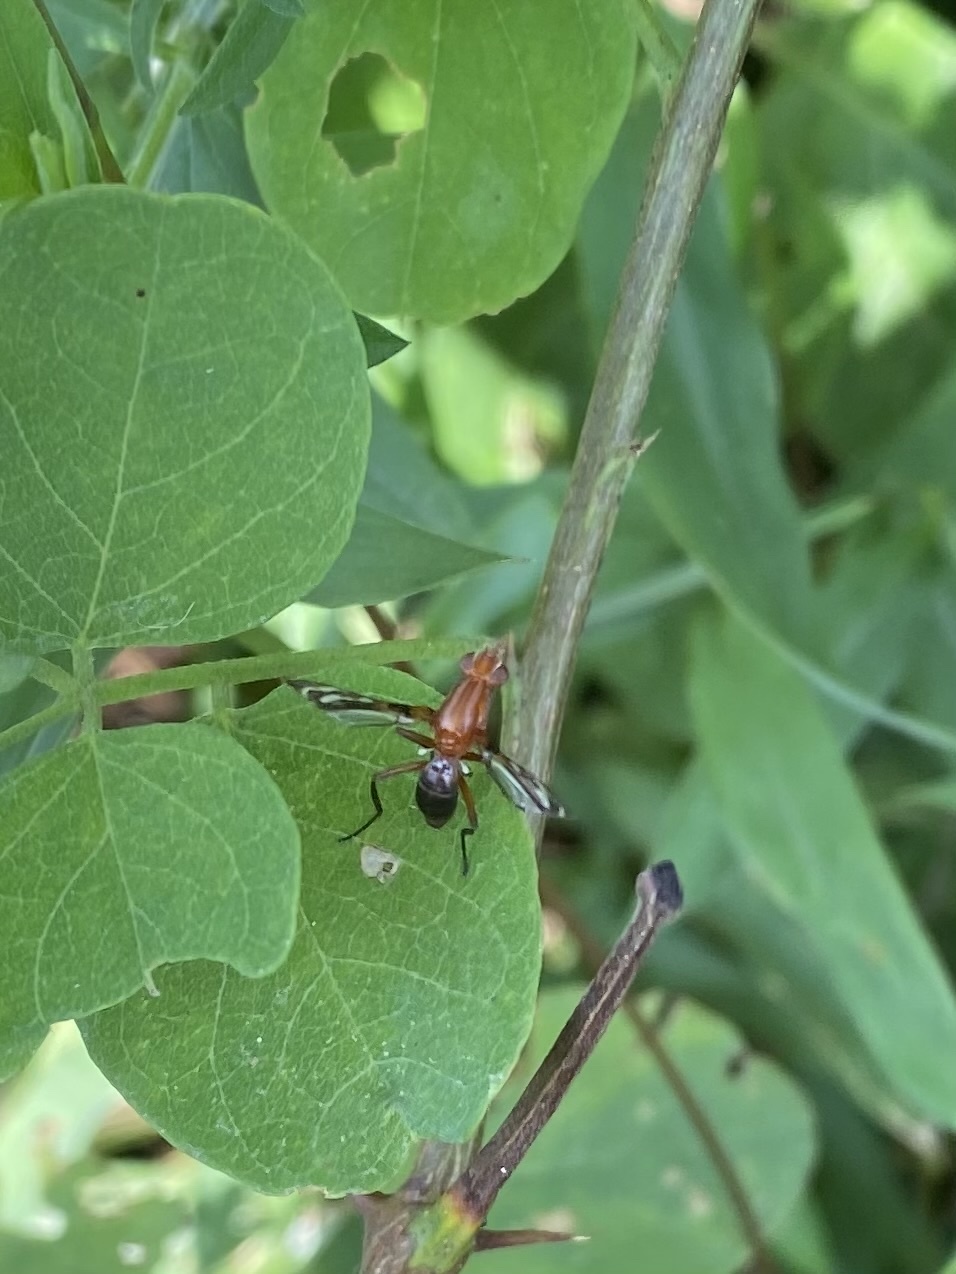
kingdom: Animalia
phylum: Arthropoda
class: Insecta
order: Diptera
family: Ulidiidae
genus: Tritoxa
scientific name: Tritoxa incurva
